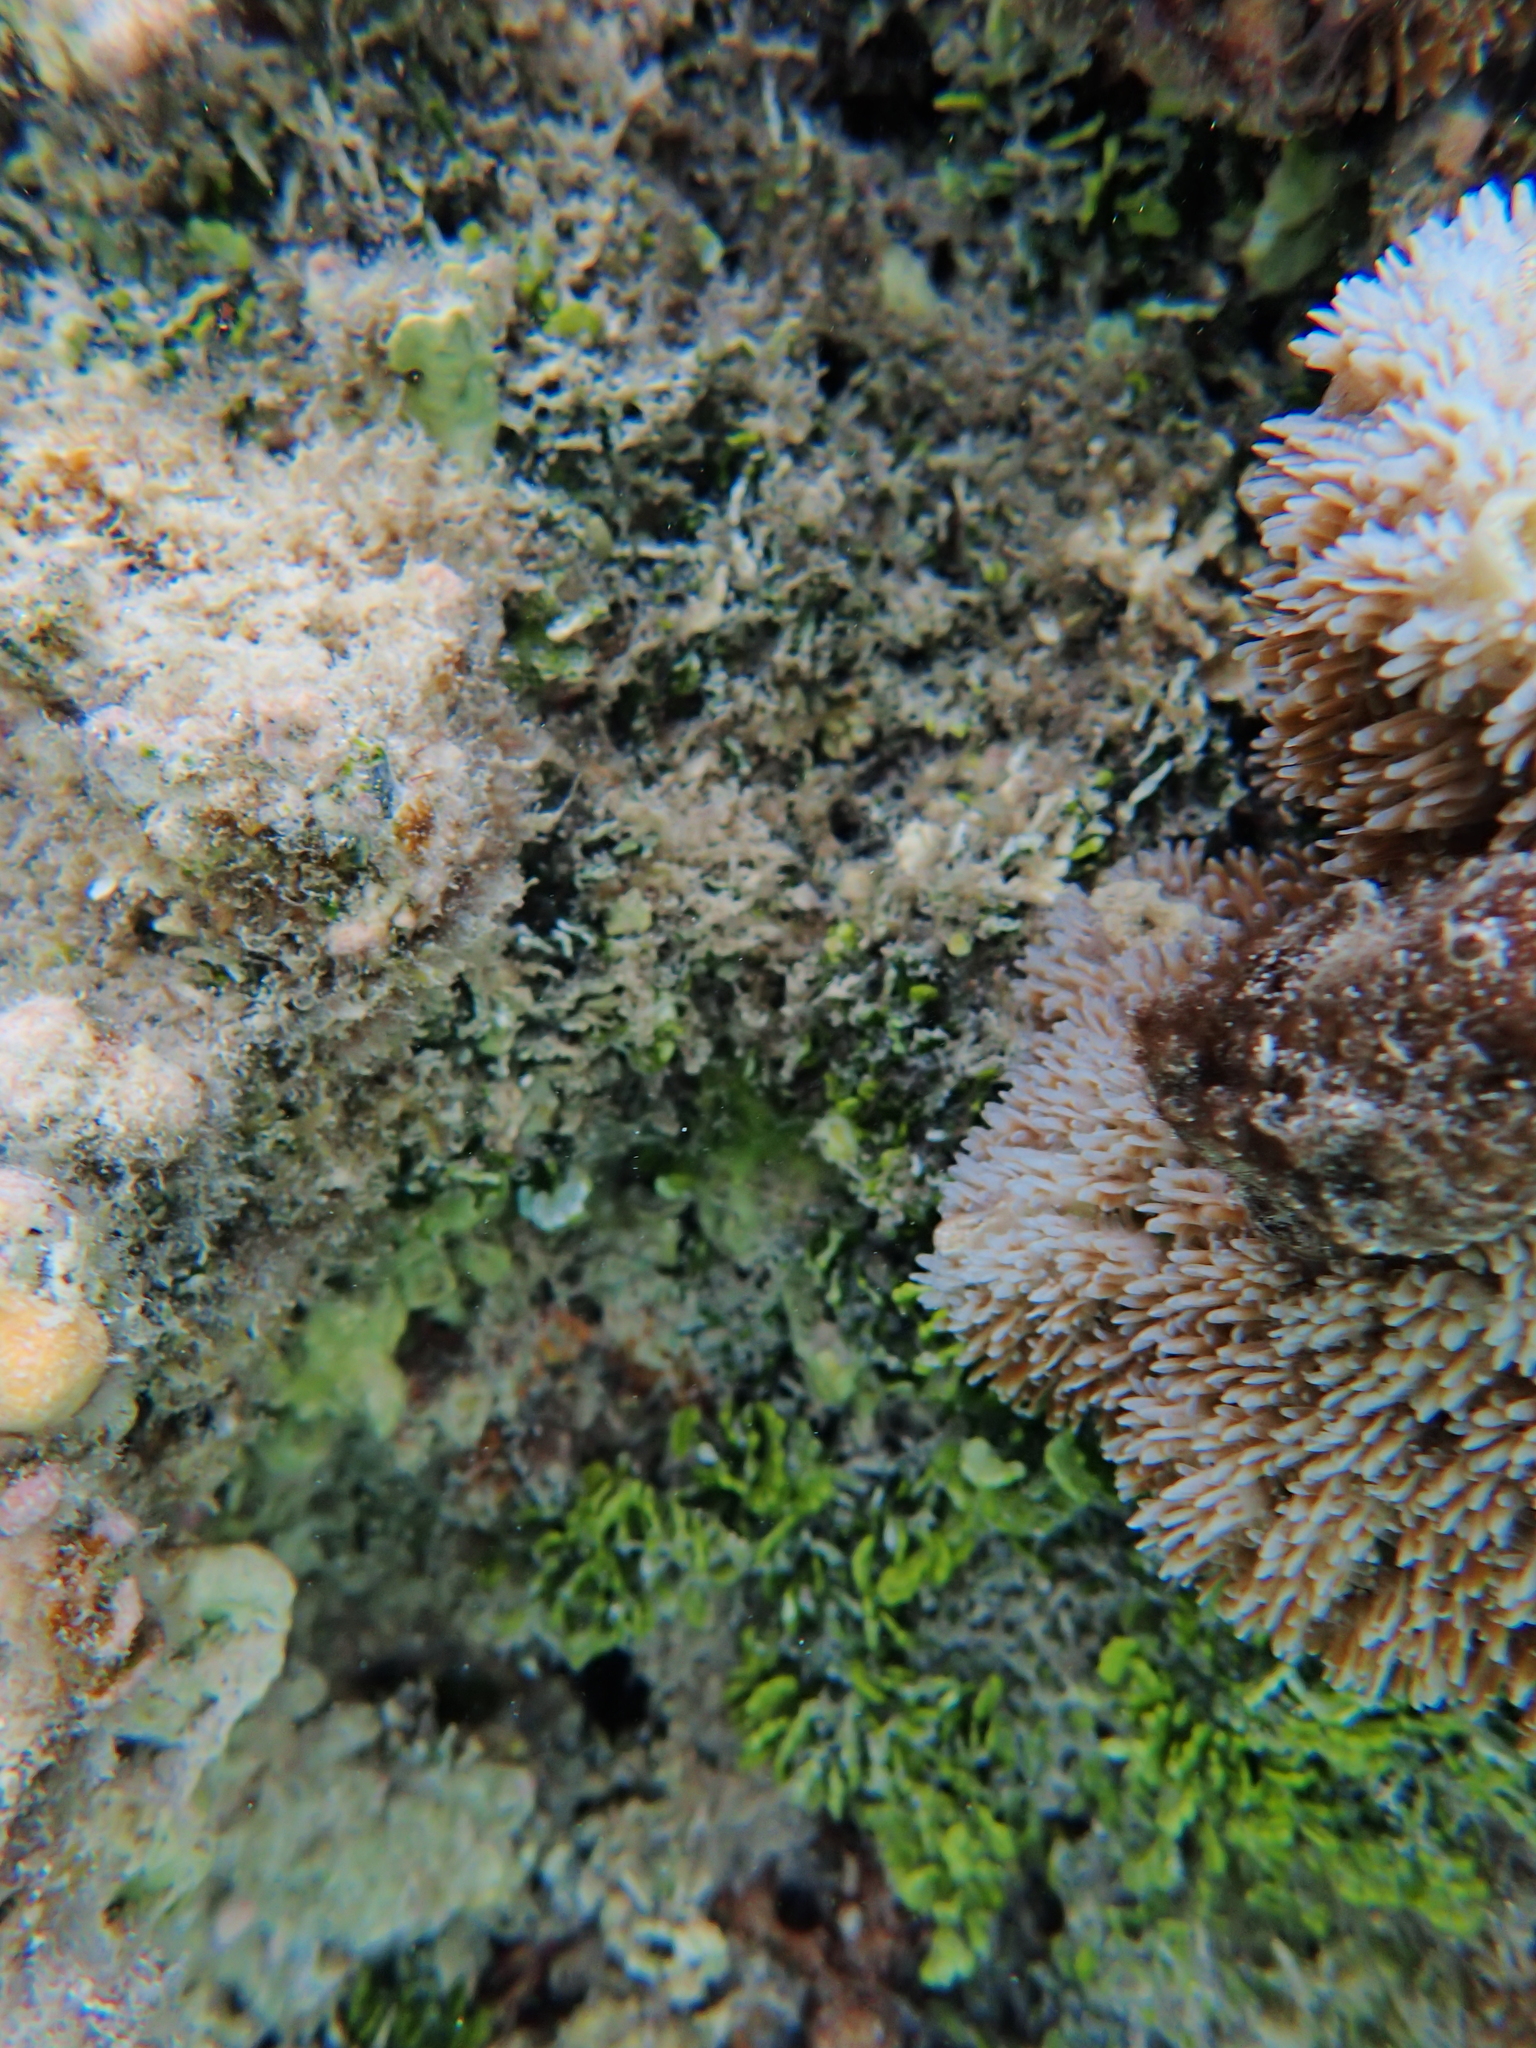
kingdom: Animalia
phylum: Cnidaria
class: Anthozoa
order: Scleractinia
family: Euphylliidae
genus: Galaxea
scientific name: Galaxea fascicularis
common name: Octopus coral
